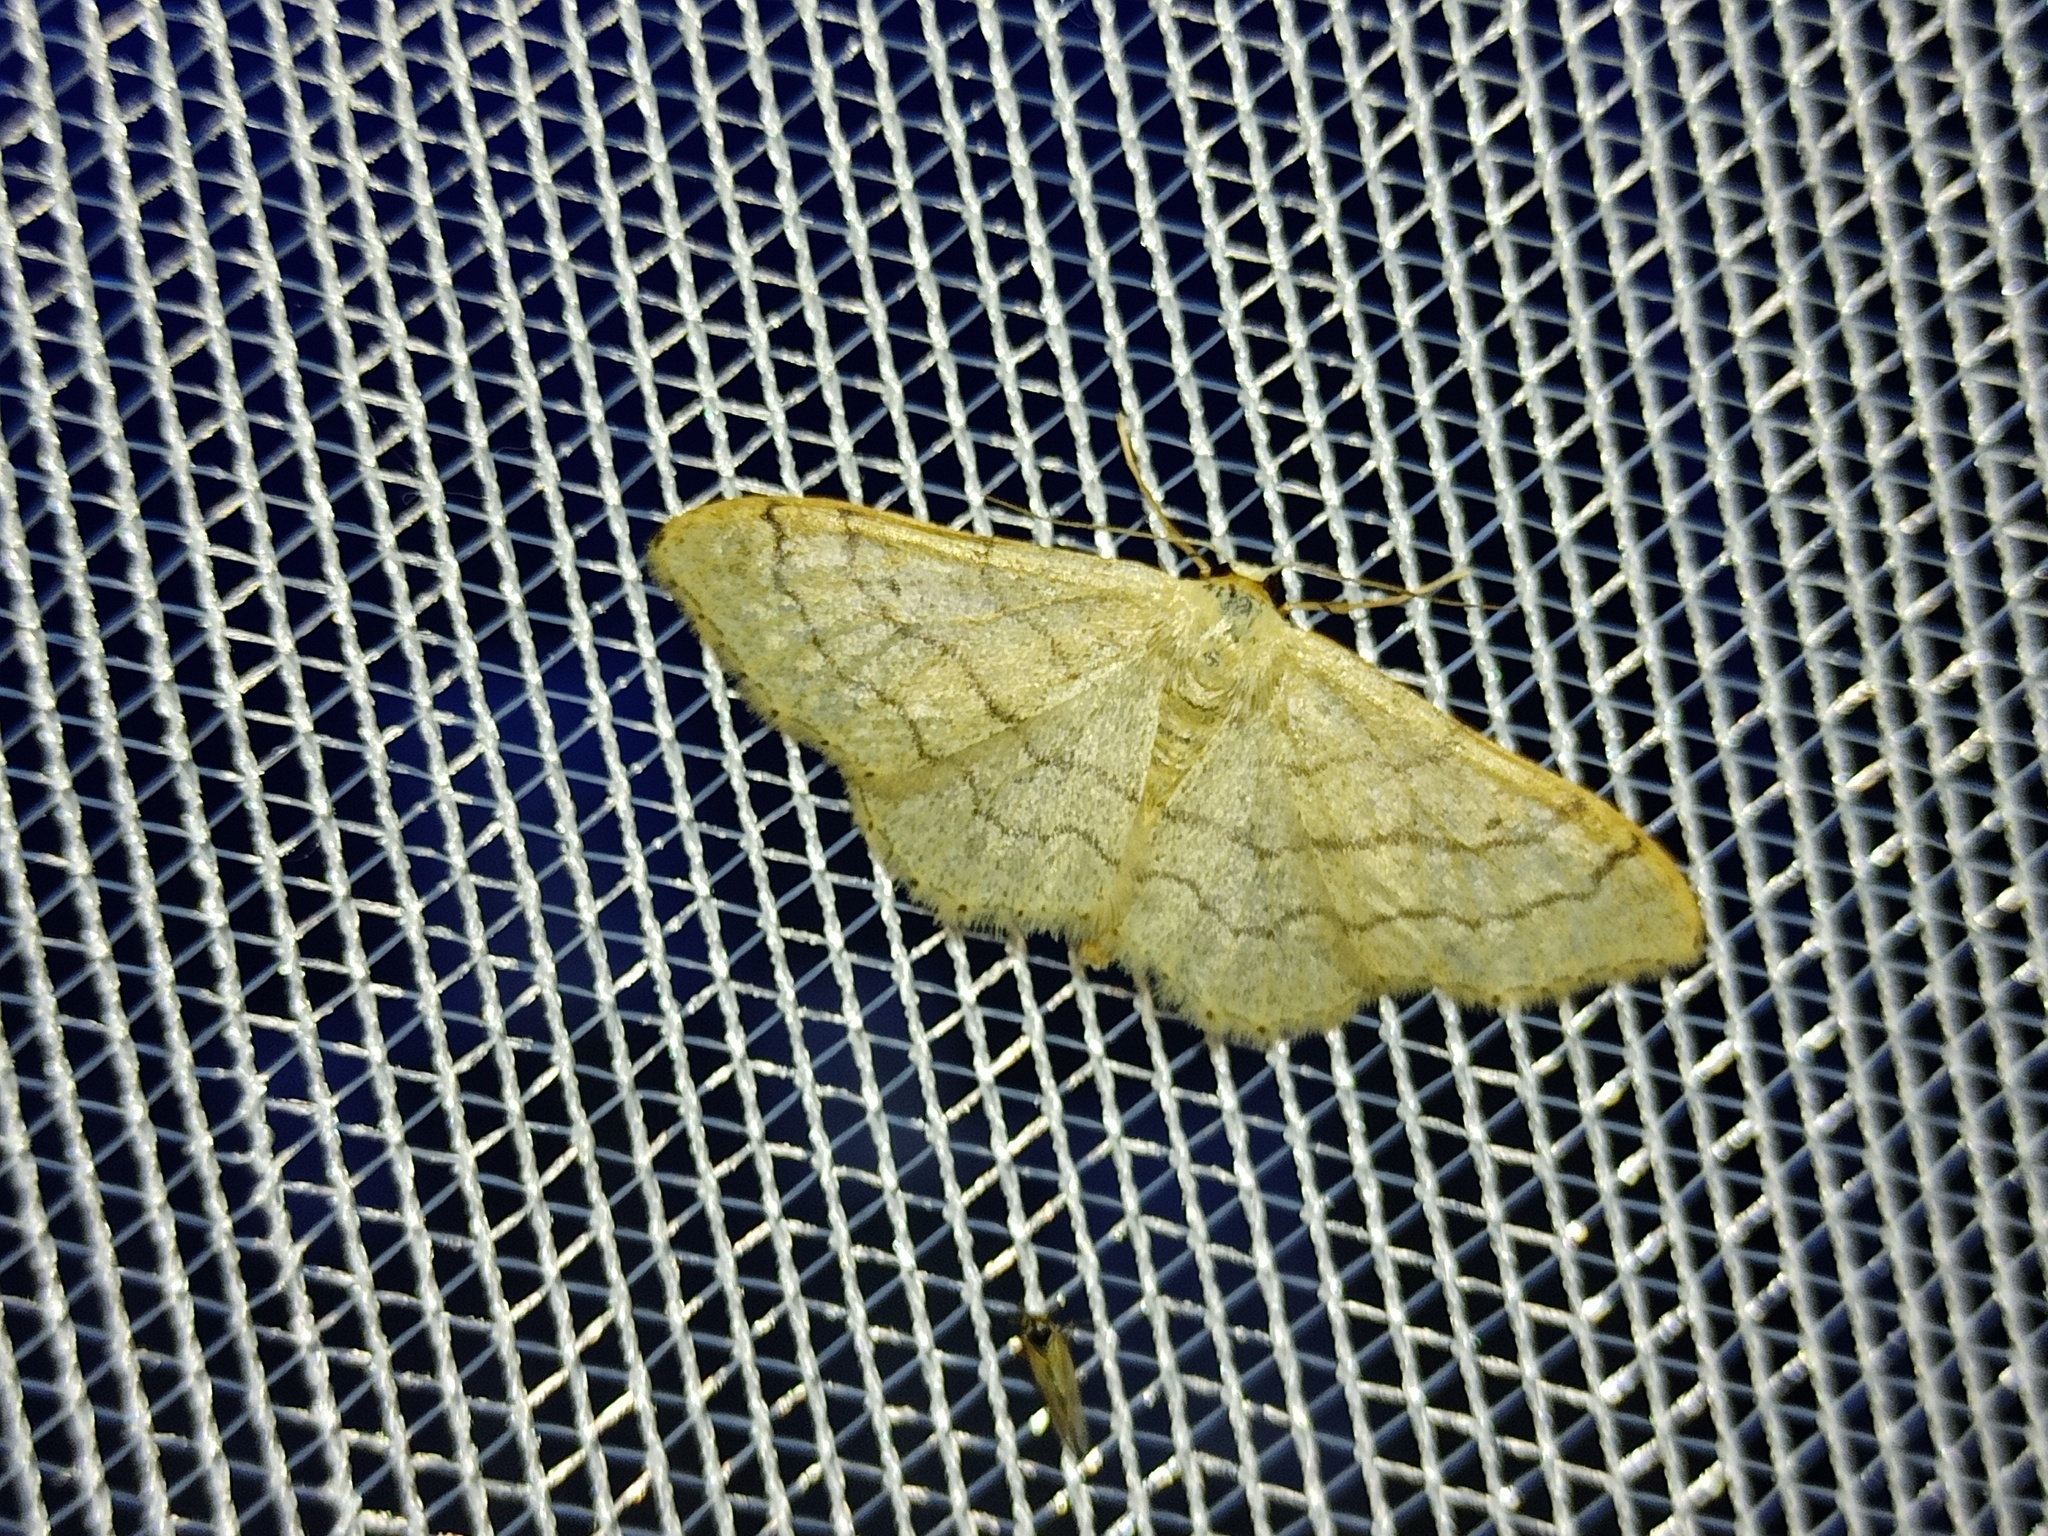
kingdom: Animalia
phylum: Arthropoda
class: Insecta
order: Lepidoptera
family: Geometridae
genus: Idaea
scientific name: Idaea aversata
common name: Riband wave
